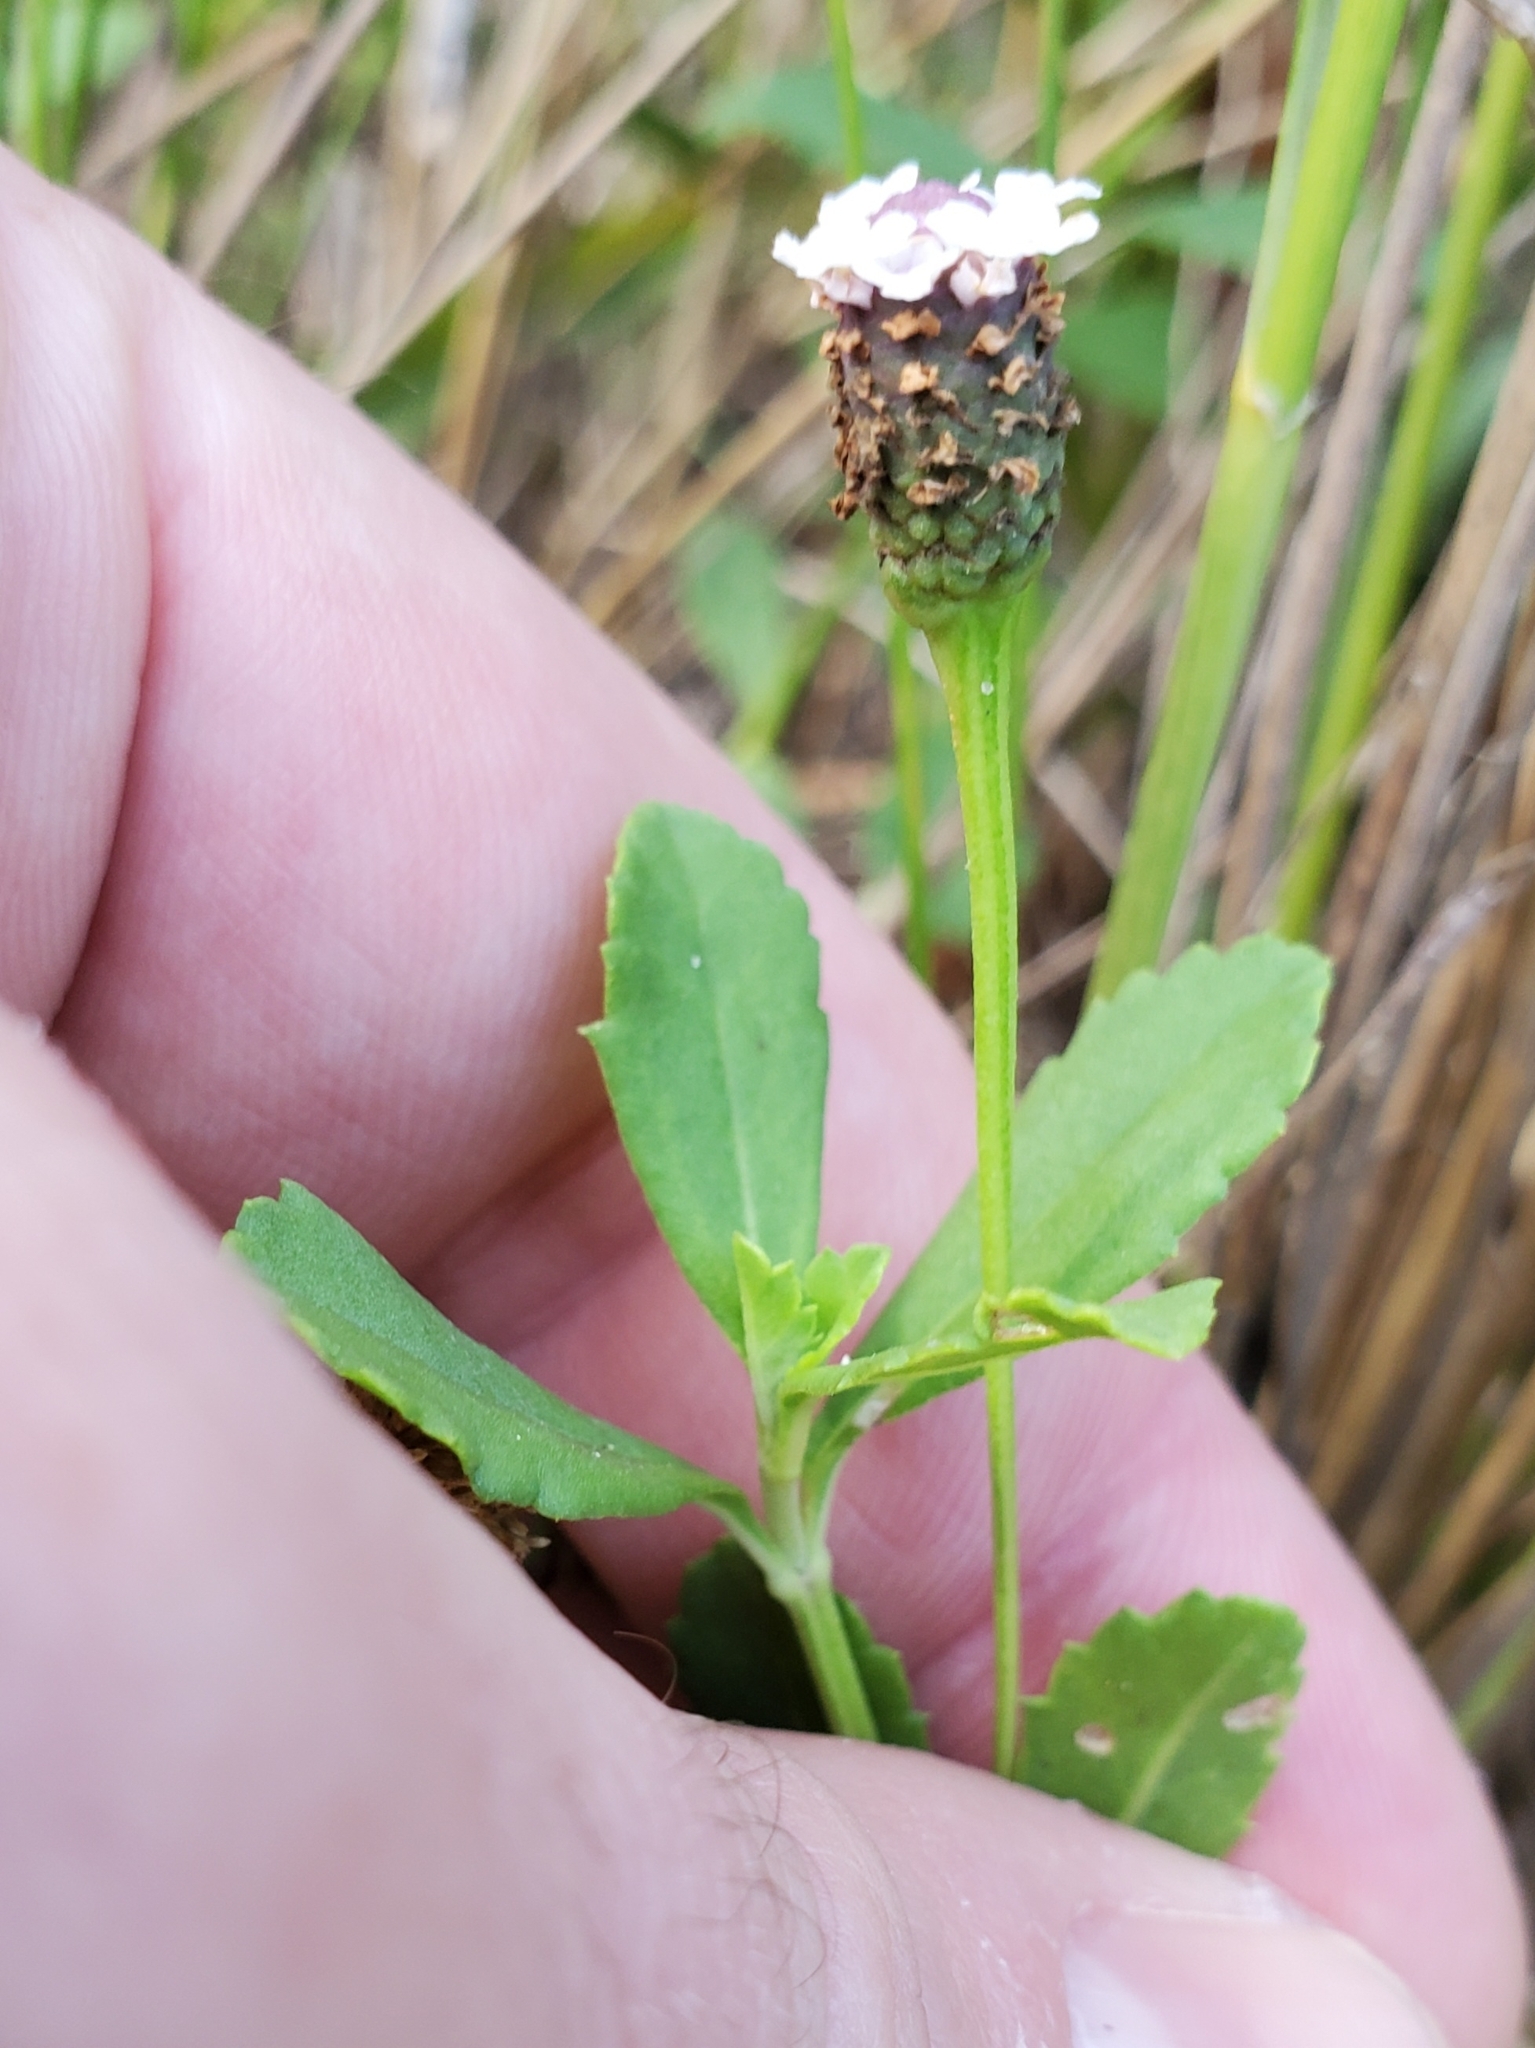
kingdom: Plantae
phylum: Tracheophyta
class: Magnoliopsida
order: Lamiales
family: Verbenaceae
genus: Phyla
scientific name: Phyla nodiflora
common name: Frogfruit
